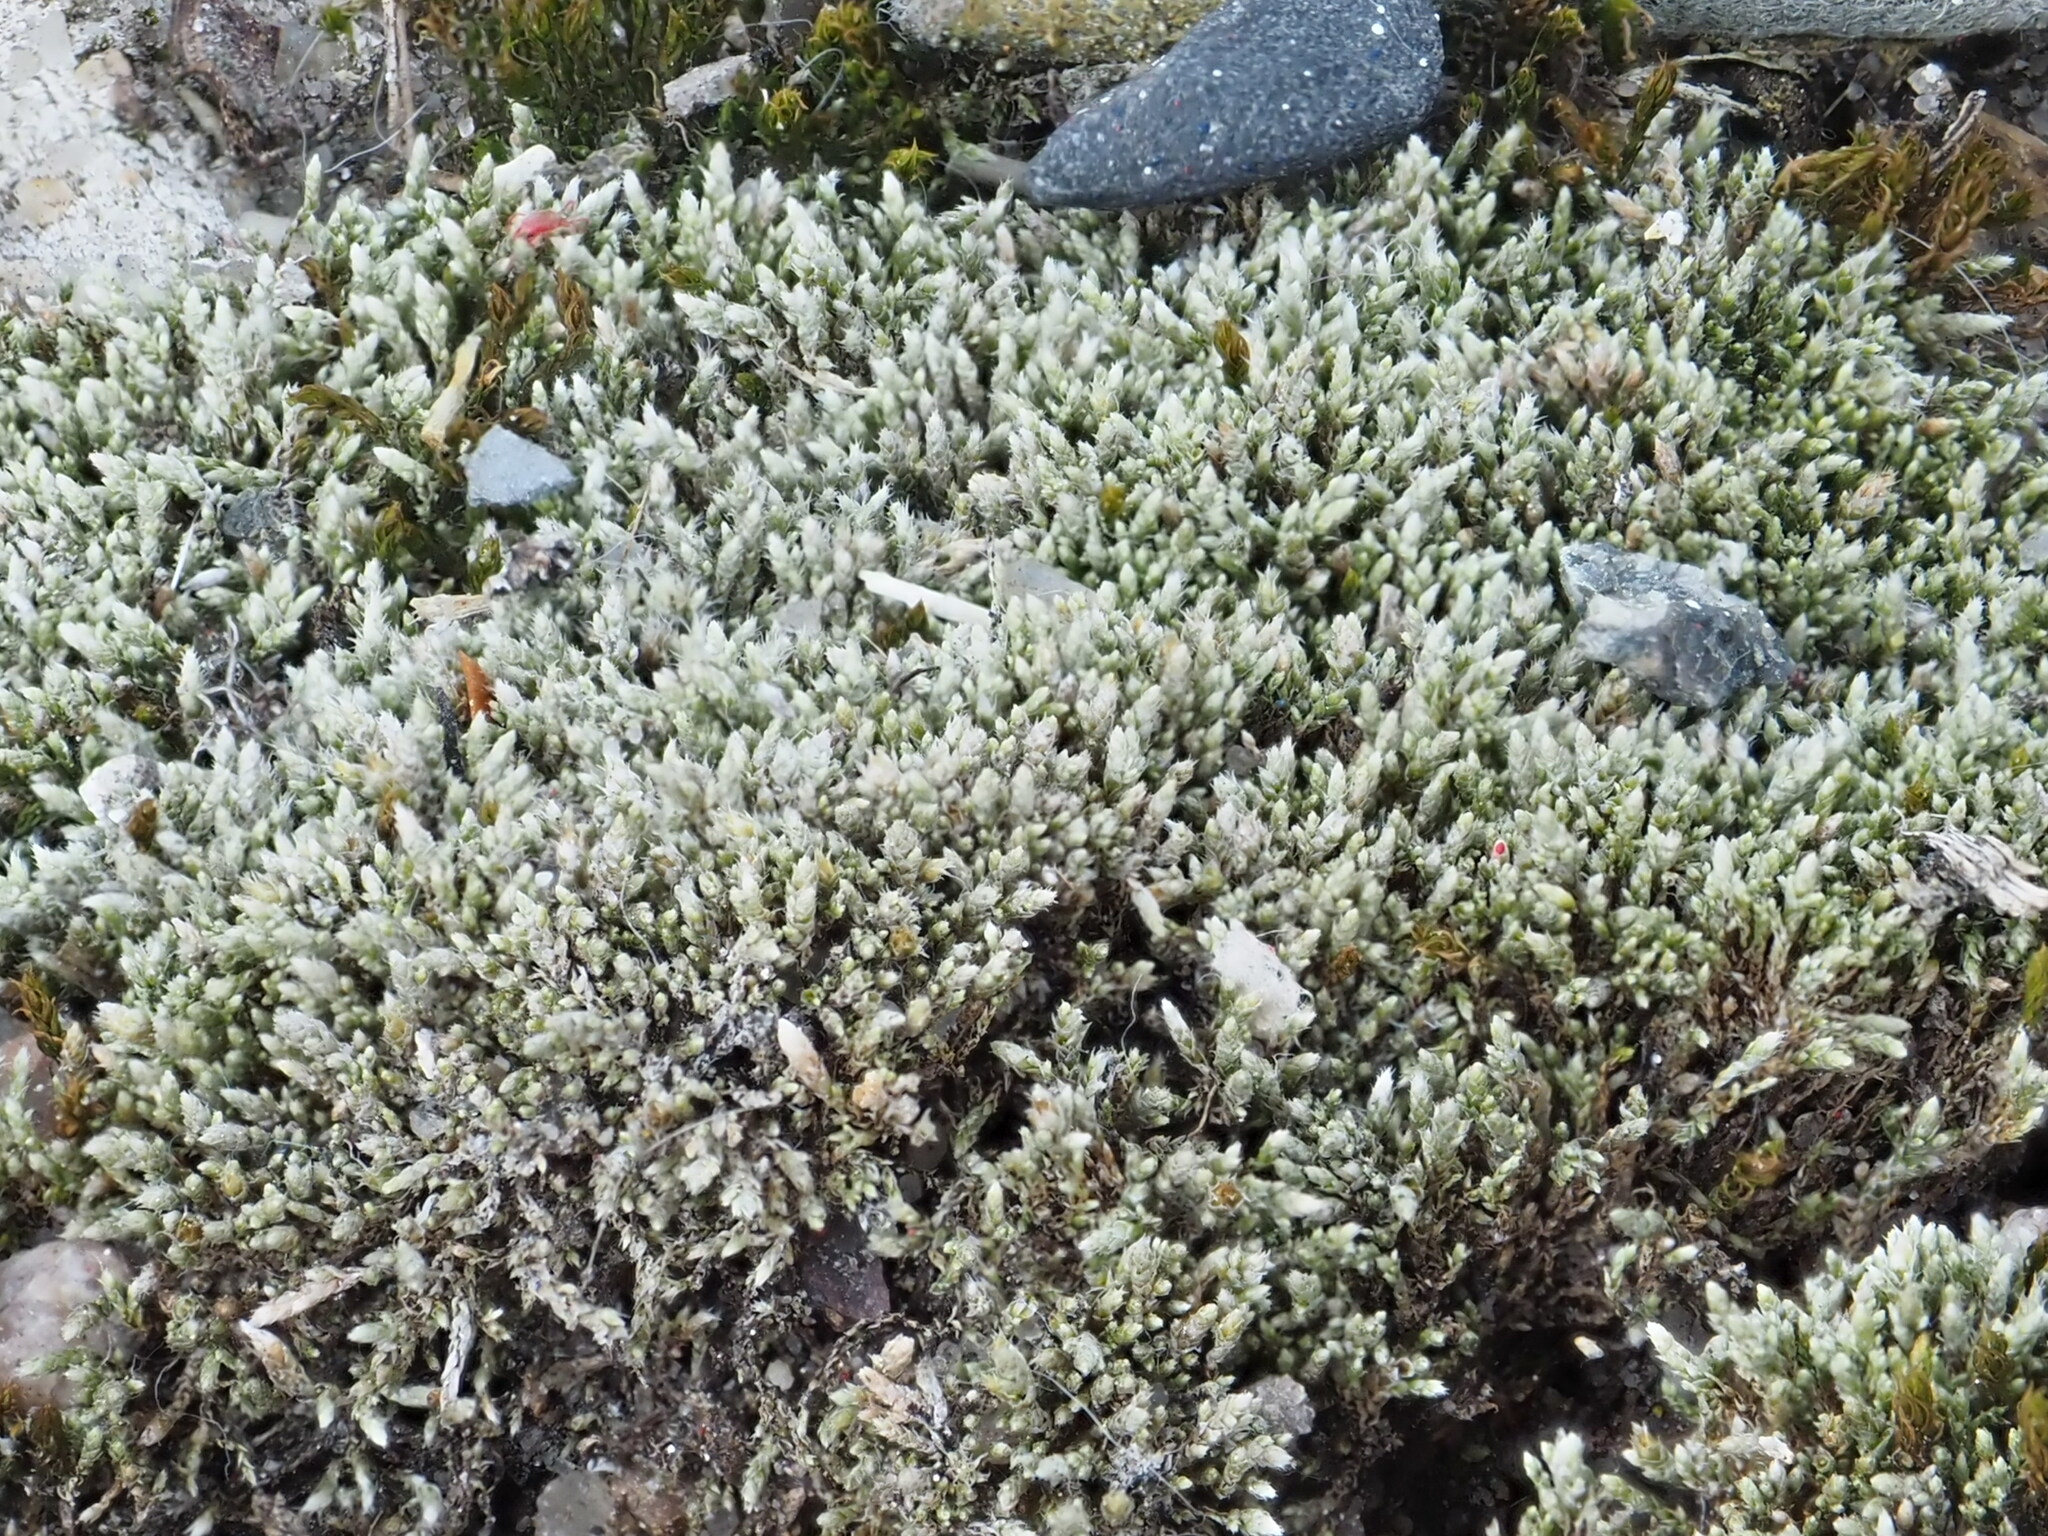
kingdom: Plantae
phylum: Bryophyta
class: Bryopsida
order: Bryales
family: Bryaceae
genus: Bryum
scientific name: Bryum argenteum
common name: Silver-moss
